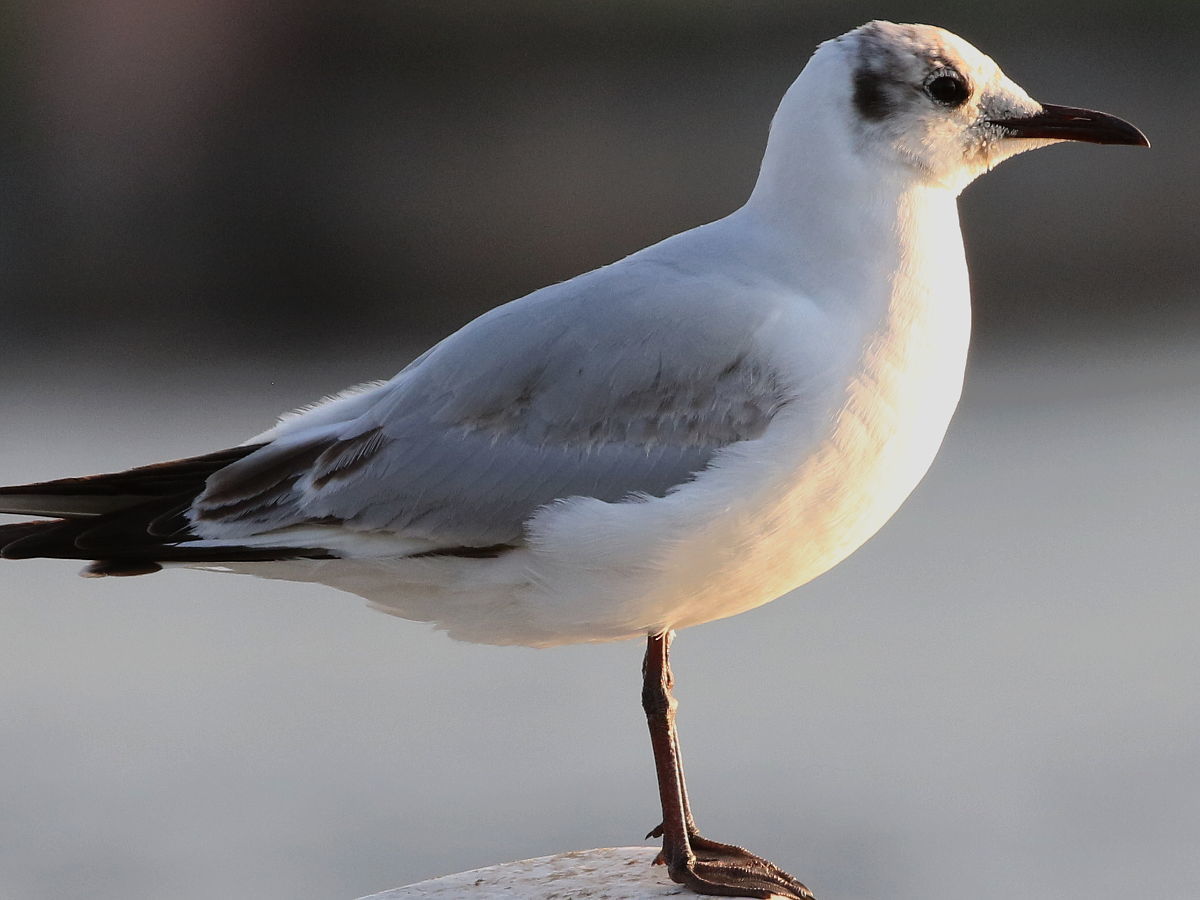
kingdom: Animalia
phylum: Chordata
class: Aves
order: Charadriiformes
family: Laridae
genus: Chroicocephalus
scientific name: Chroicocephalus ridibundus
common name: Black-headed gull
